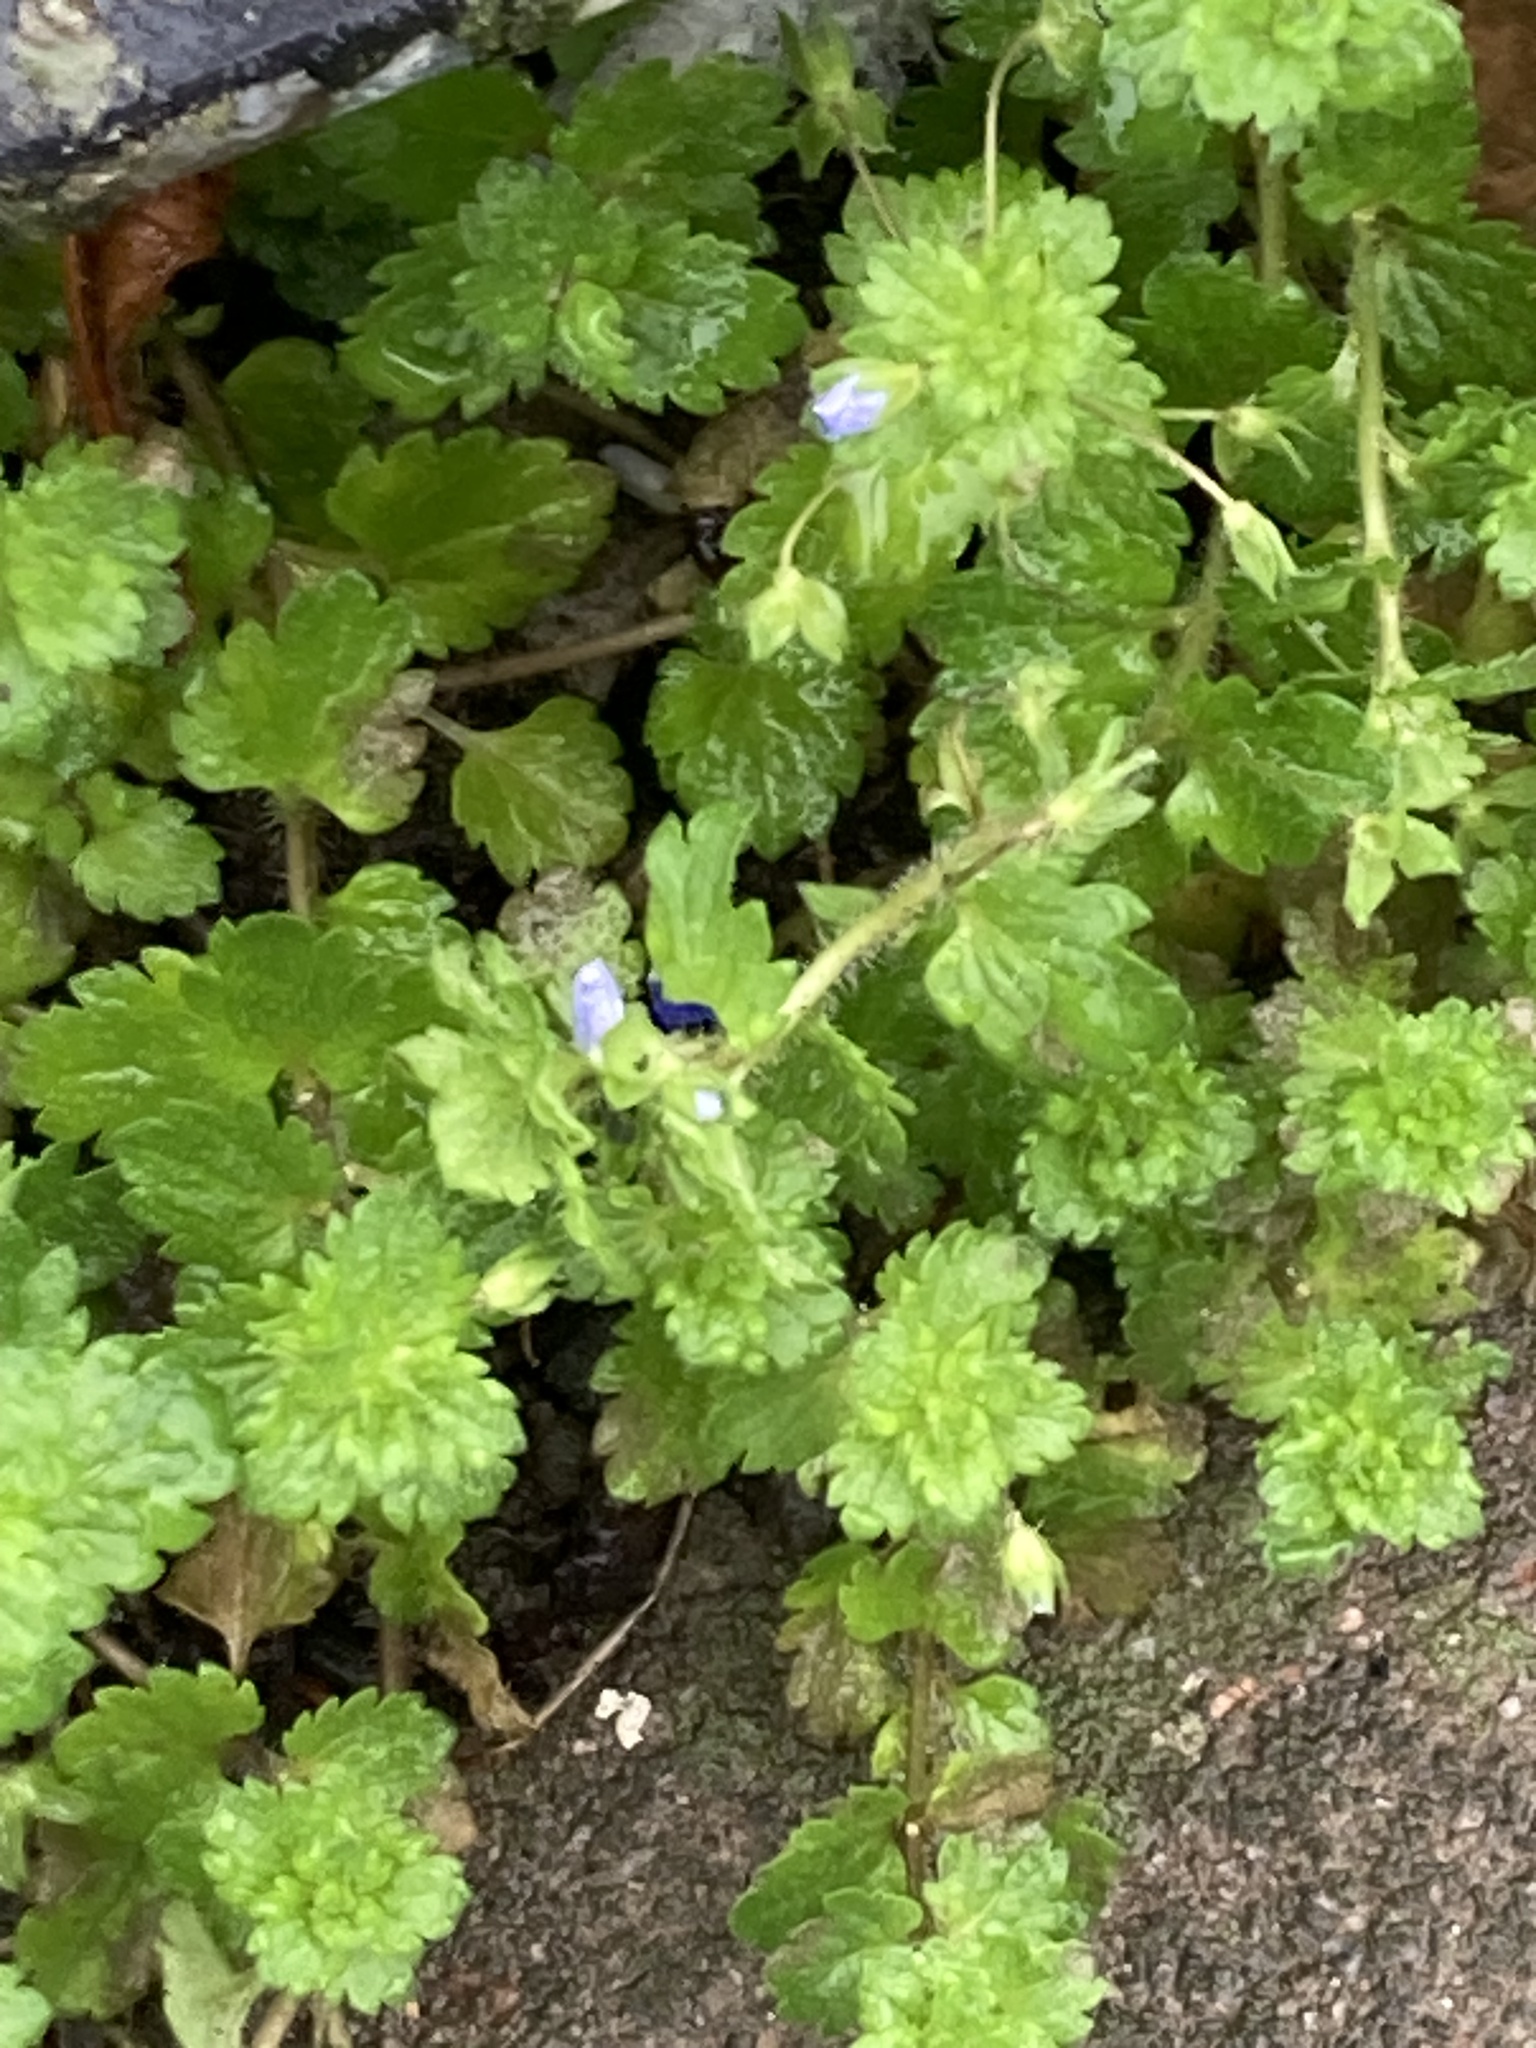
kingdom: Plantae
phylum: Tracheophyta
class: Magnoliopsida
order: Lamiales
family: Plantaginaceae
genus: Veronica
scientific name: Veronica persica
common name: Common field-speedwell
